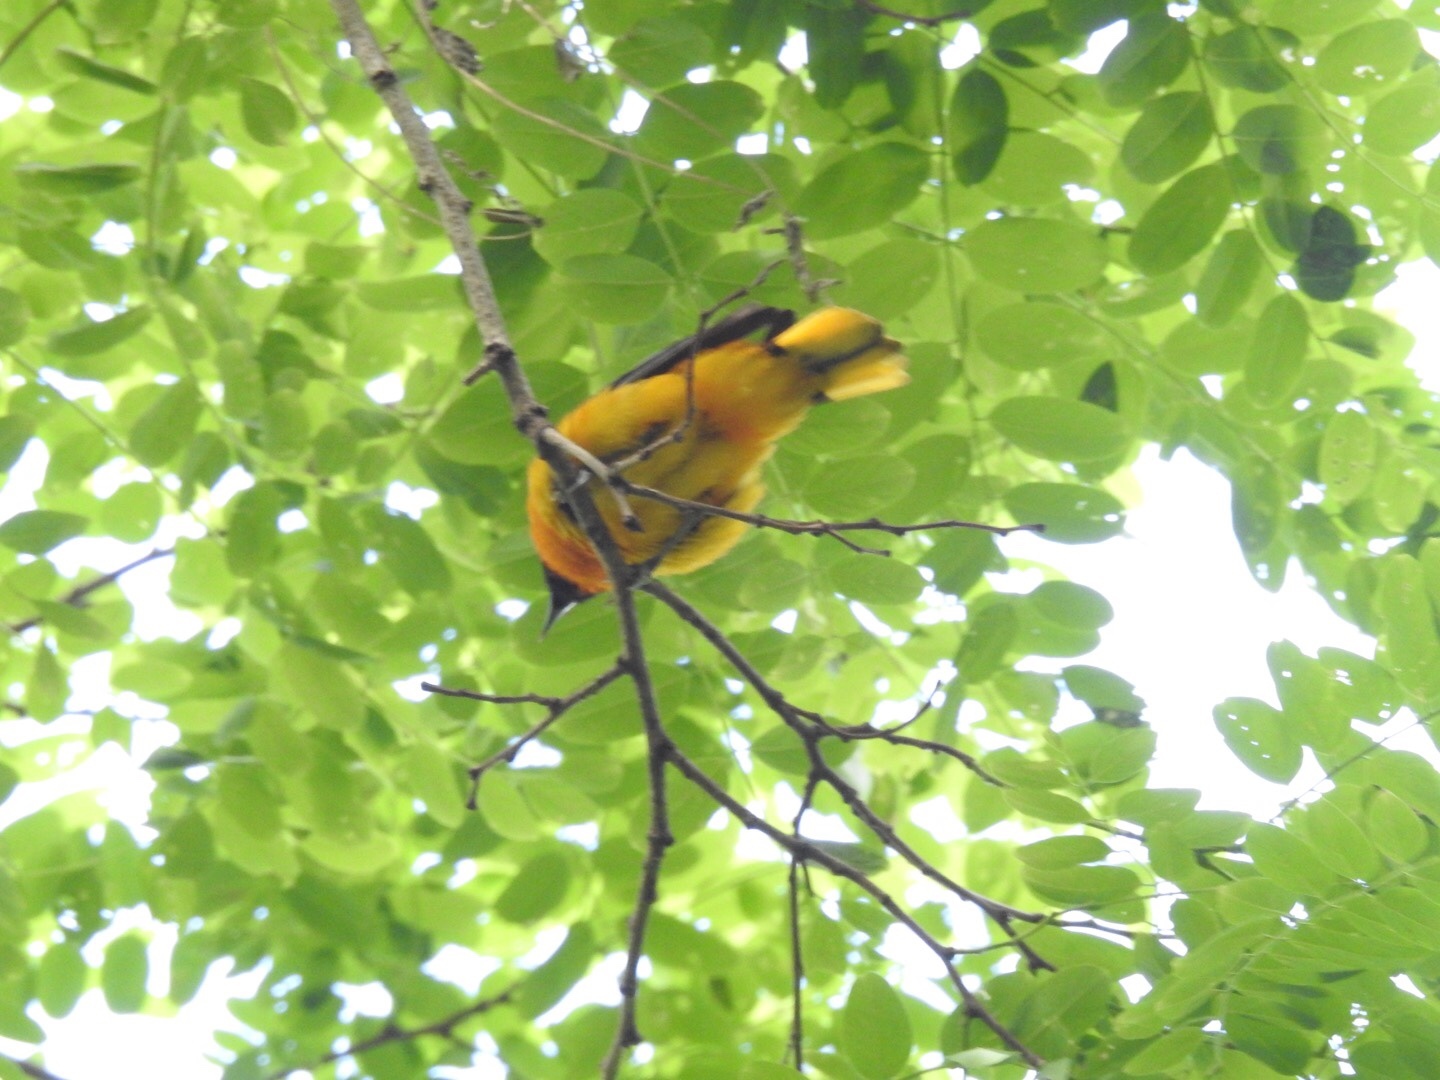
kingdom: Animalia
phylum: Chordata
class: Aves
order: Passeriformes
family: Icteridae
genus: Icterus
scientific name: Icterus galbula
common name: Baltimore oriole
